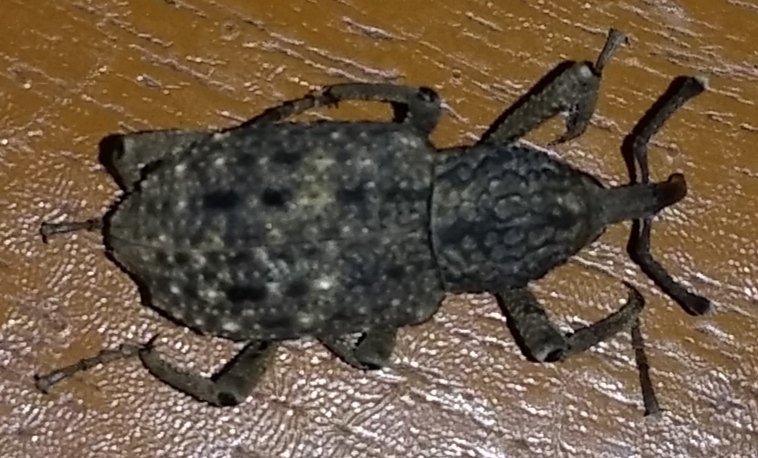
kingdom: Animalia
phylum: Arthropoda
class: Insecta
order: Coleoptera
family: Dryophthoridae
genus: Sipalinus
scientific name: Sipalinus gigas
